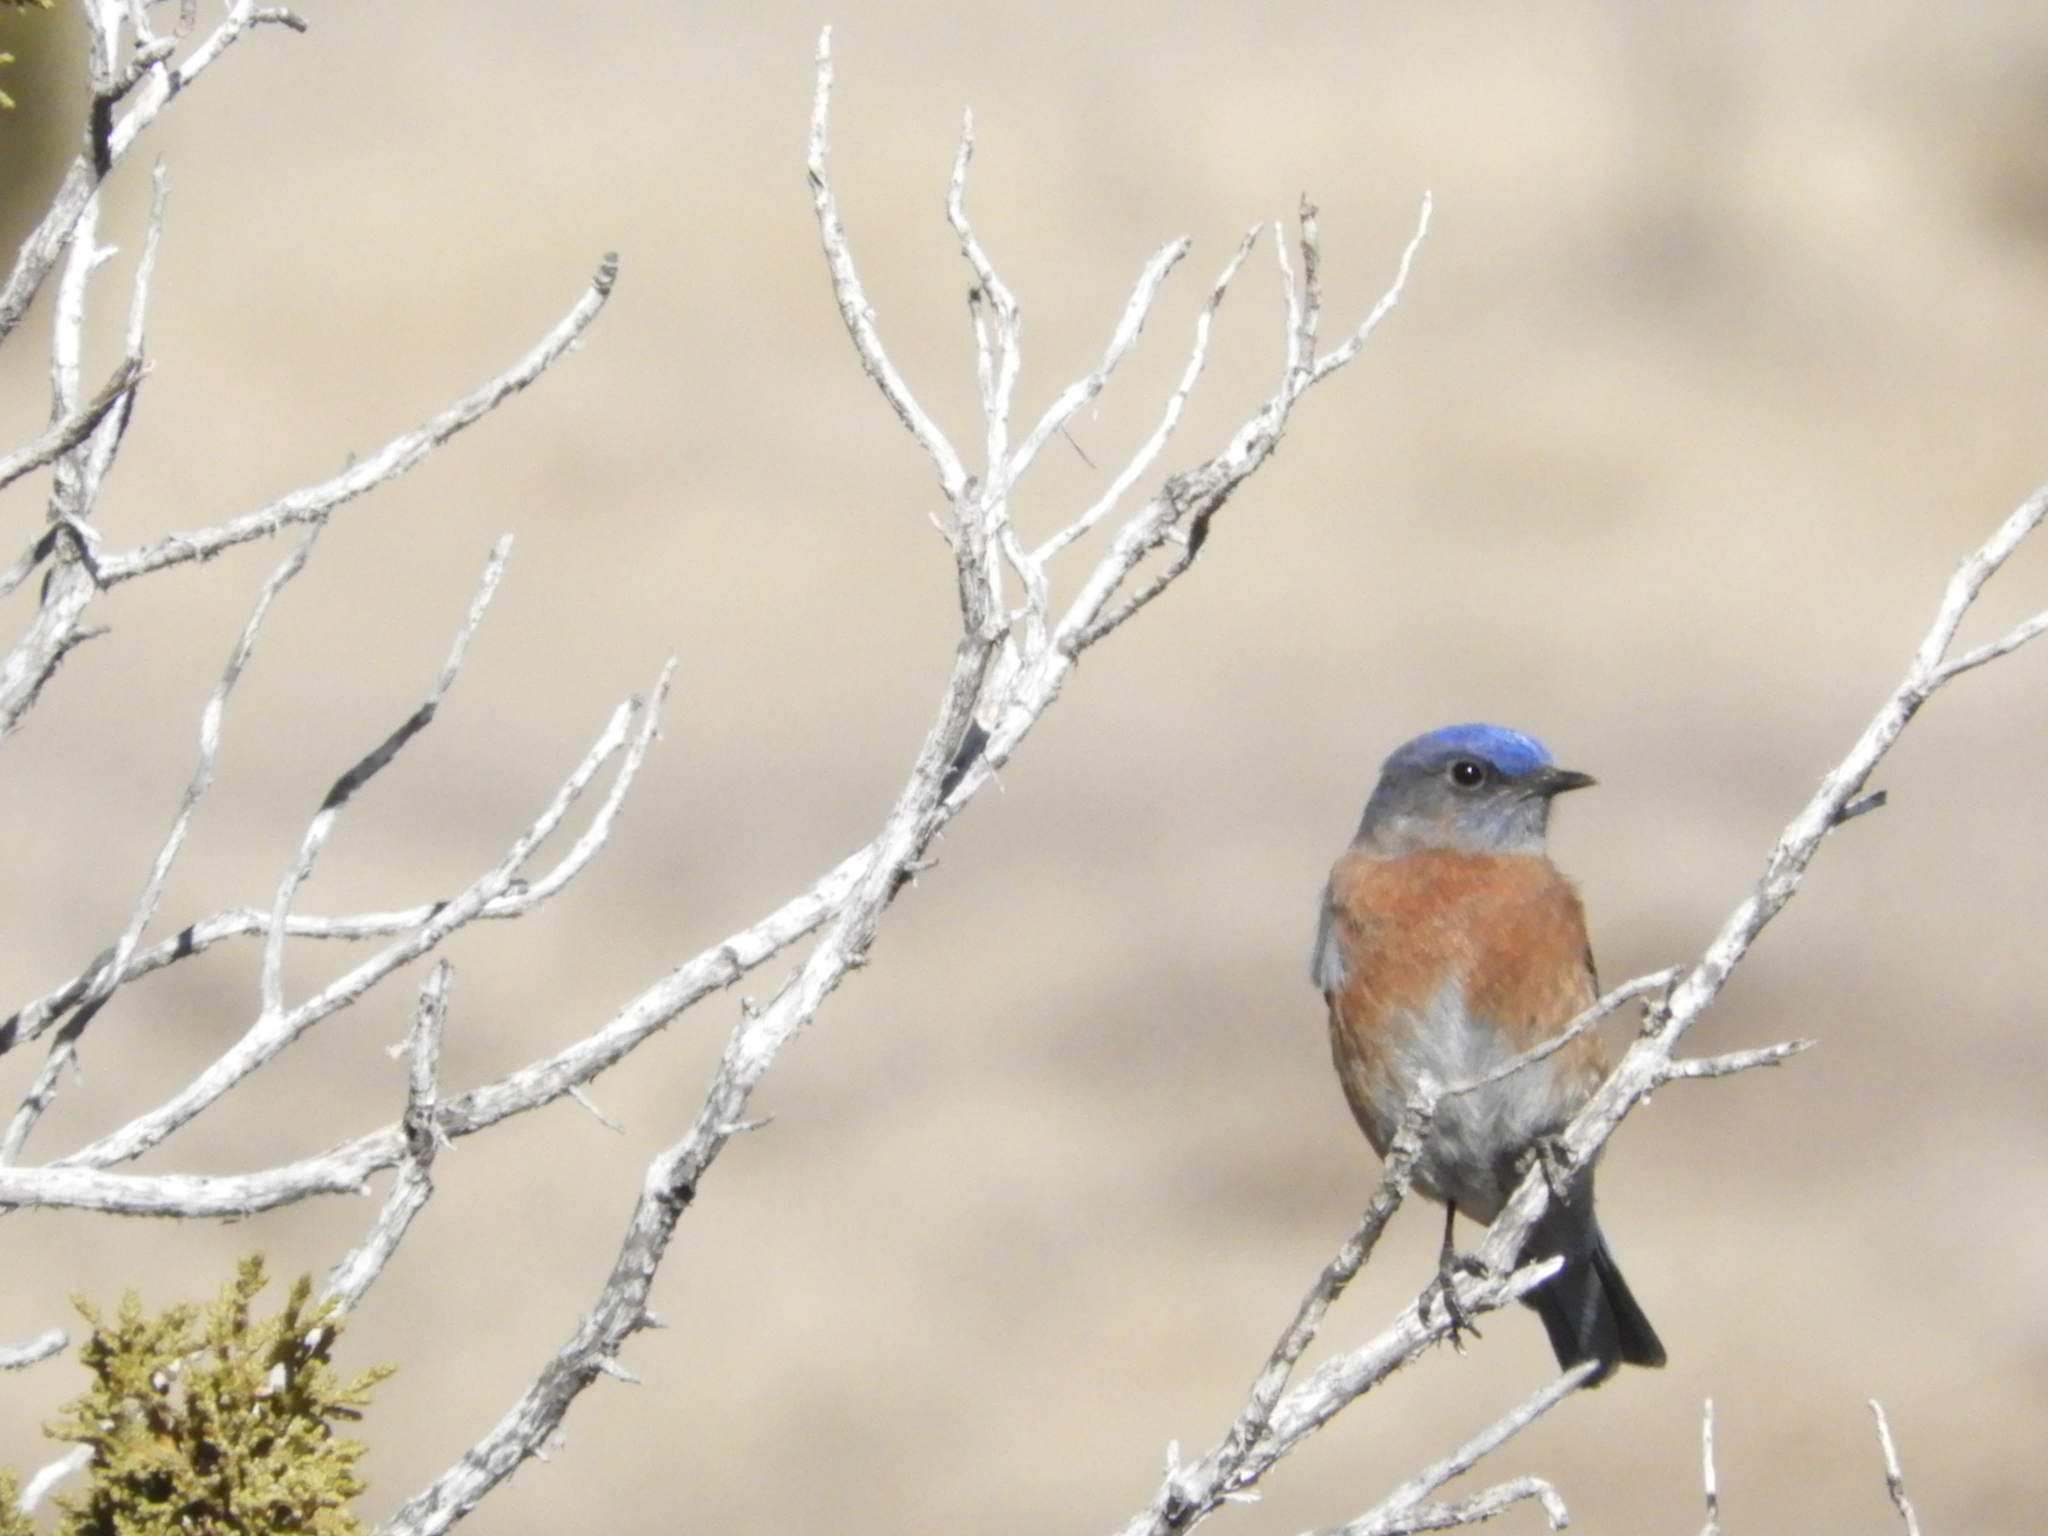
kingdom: Animalia
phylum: Chordata
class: Aves
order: Passeriformes
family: Turdidae
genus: Sialia
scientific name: Sialia mexicana
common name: Western bluebird
